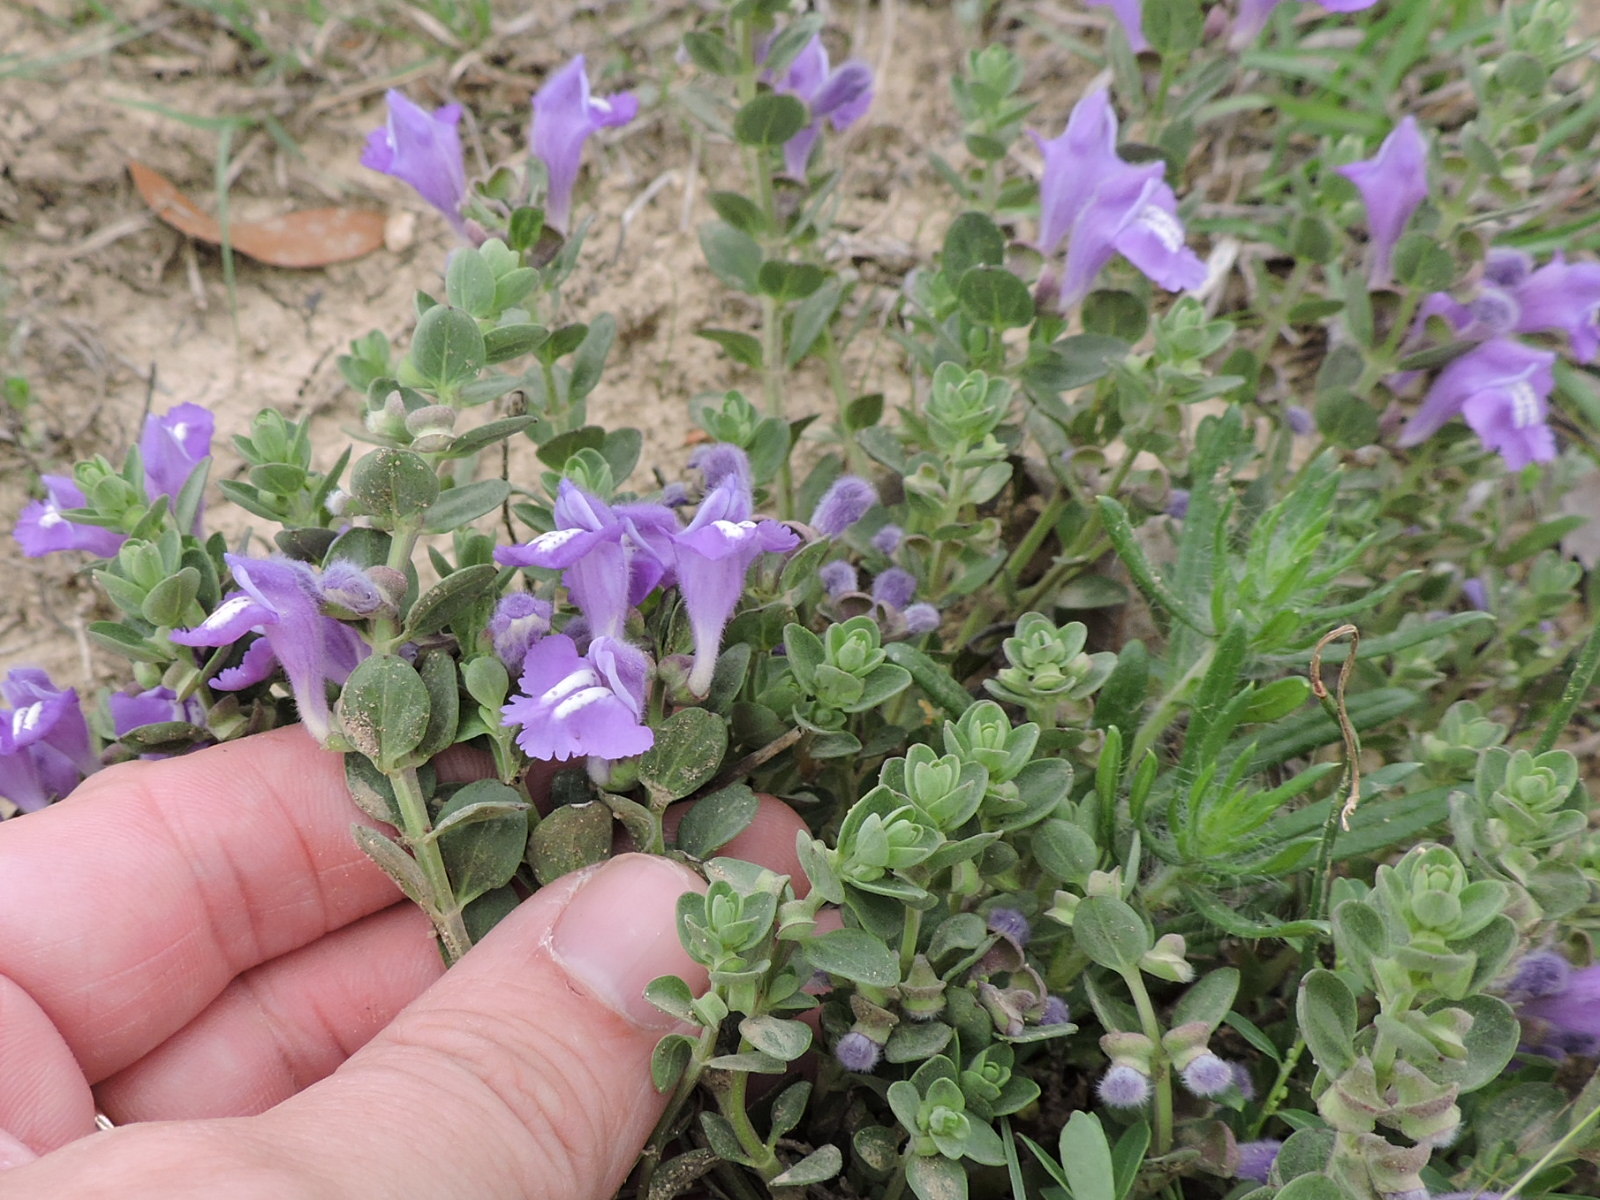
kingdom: Plantae
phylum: Tracheophyta
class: Magnoliopsida
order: Lamiales
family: Lamiaceae
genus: Scutellaria
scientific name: Scutellaria wrightii
